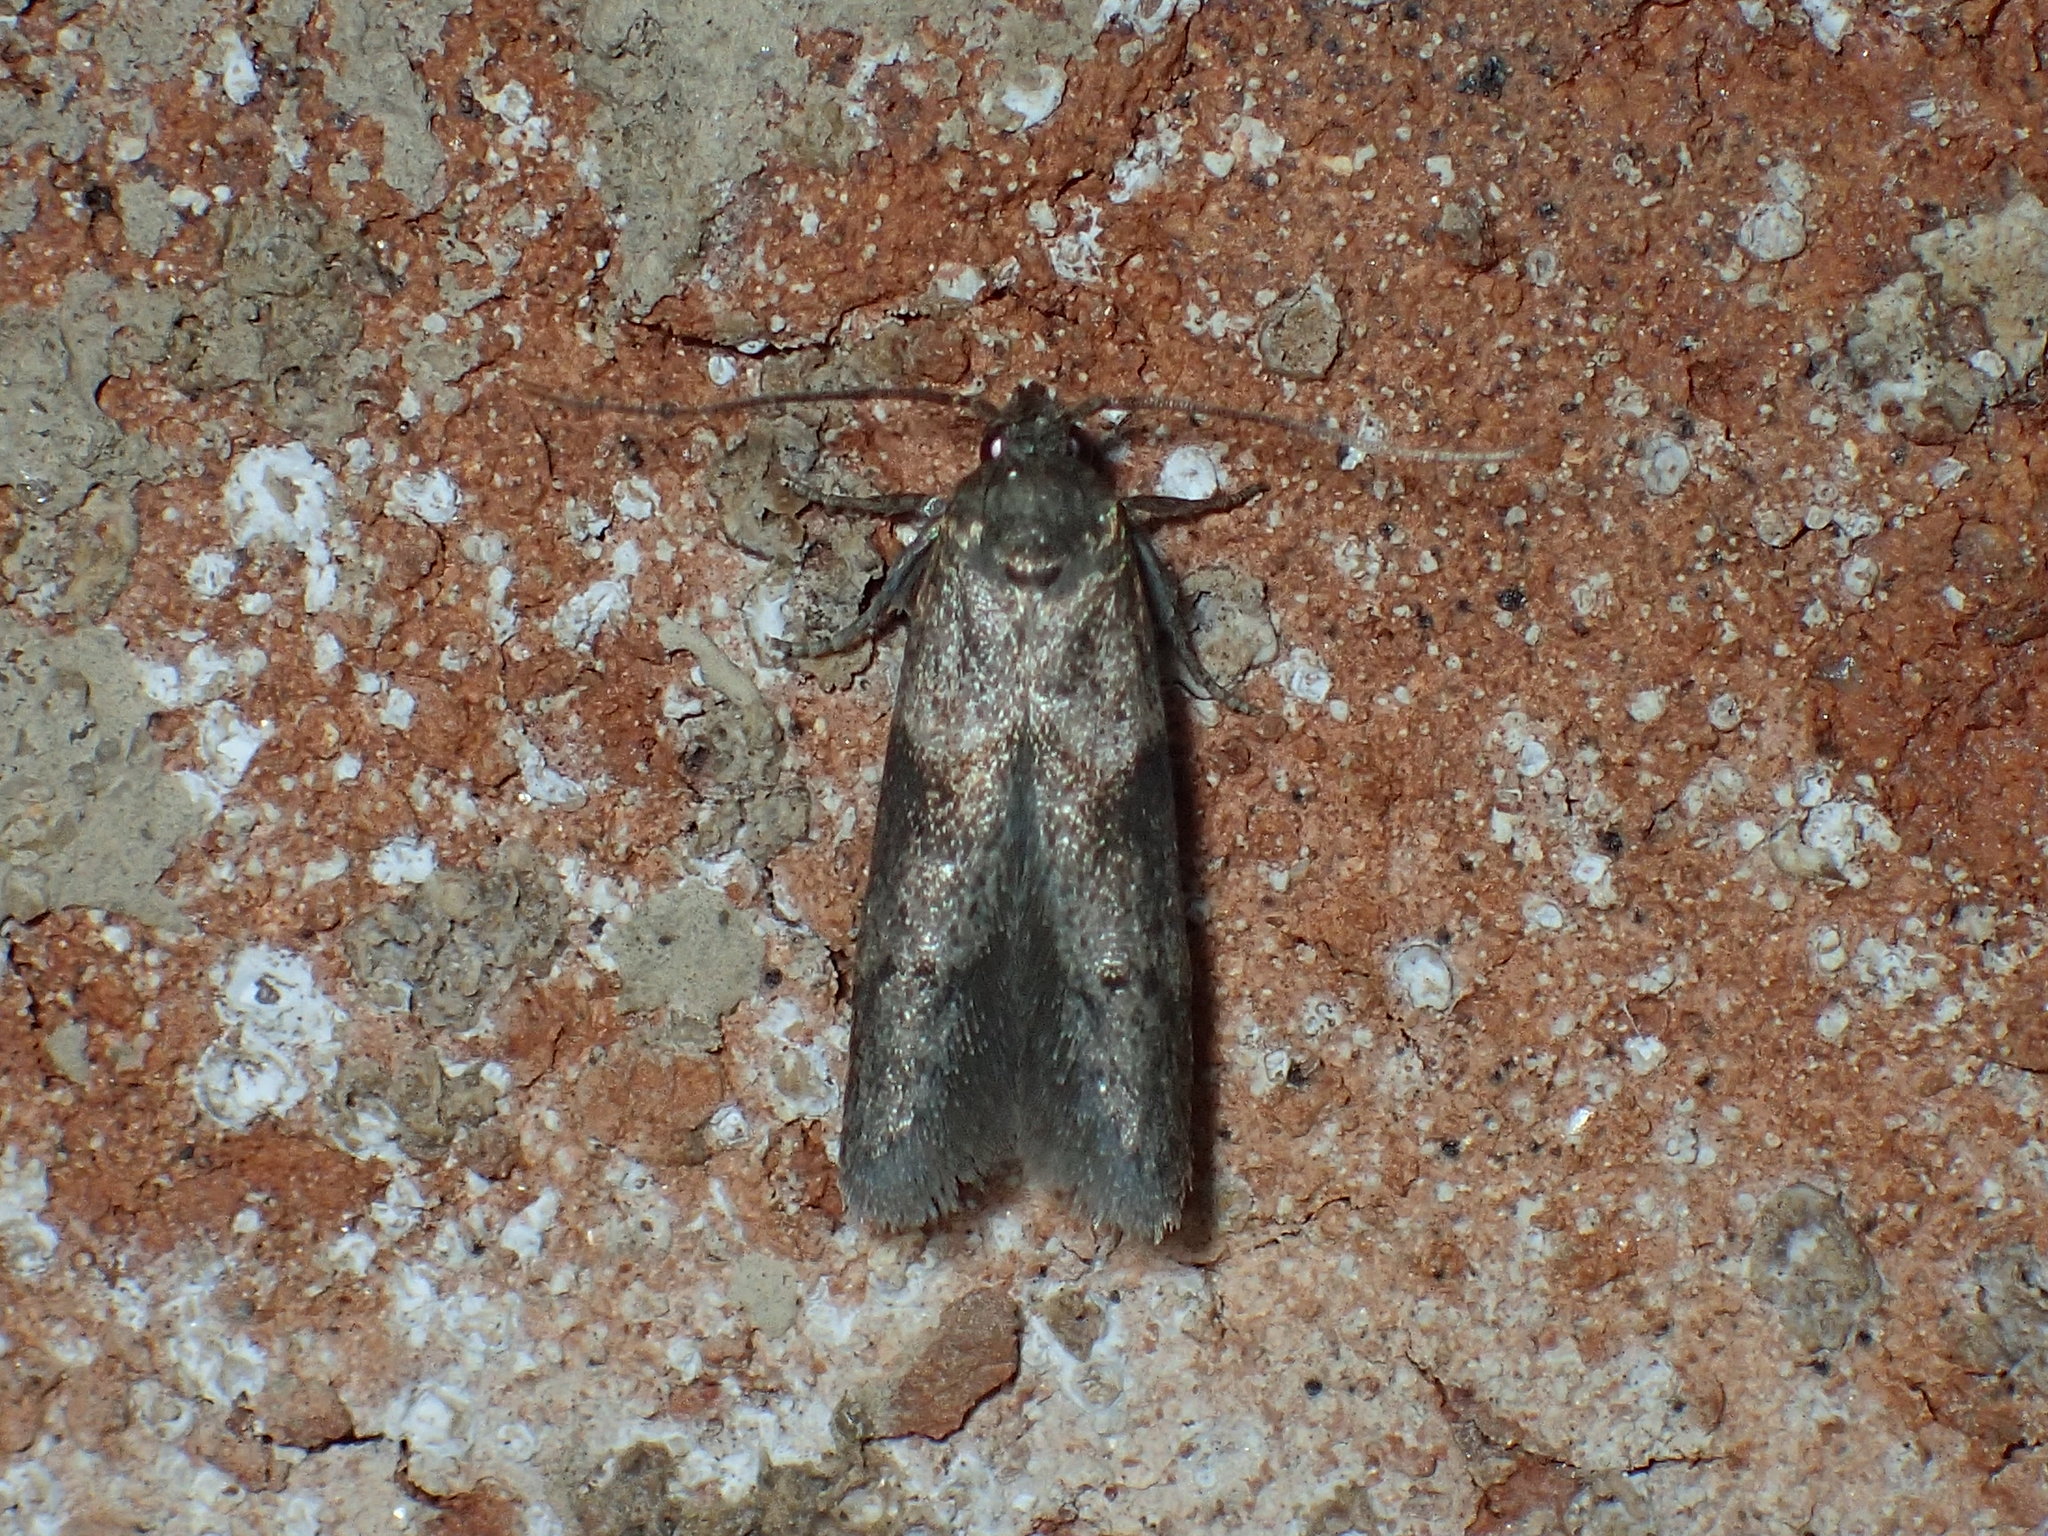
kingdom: Animalia
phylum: Arthropoda
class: Insecta
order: Lepidoptera
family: Blastobasidae
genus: Blastobasis
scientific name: Blastobasis glandulella
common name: Acorn moth
